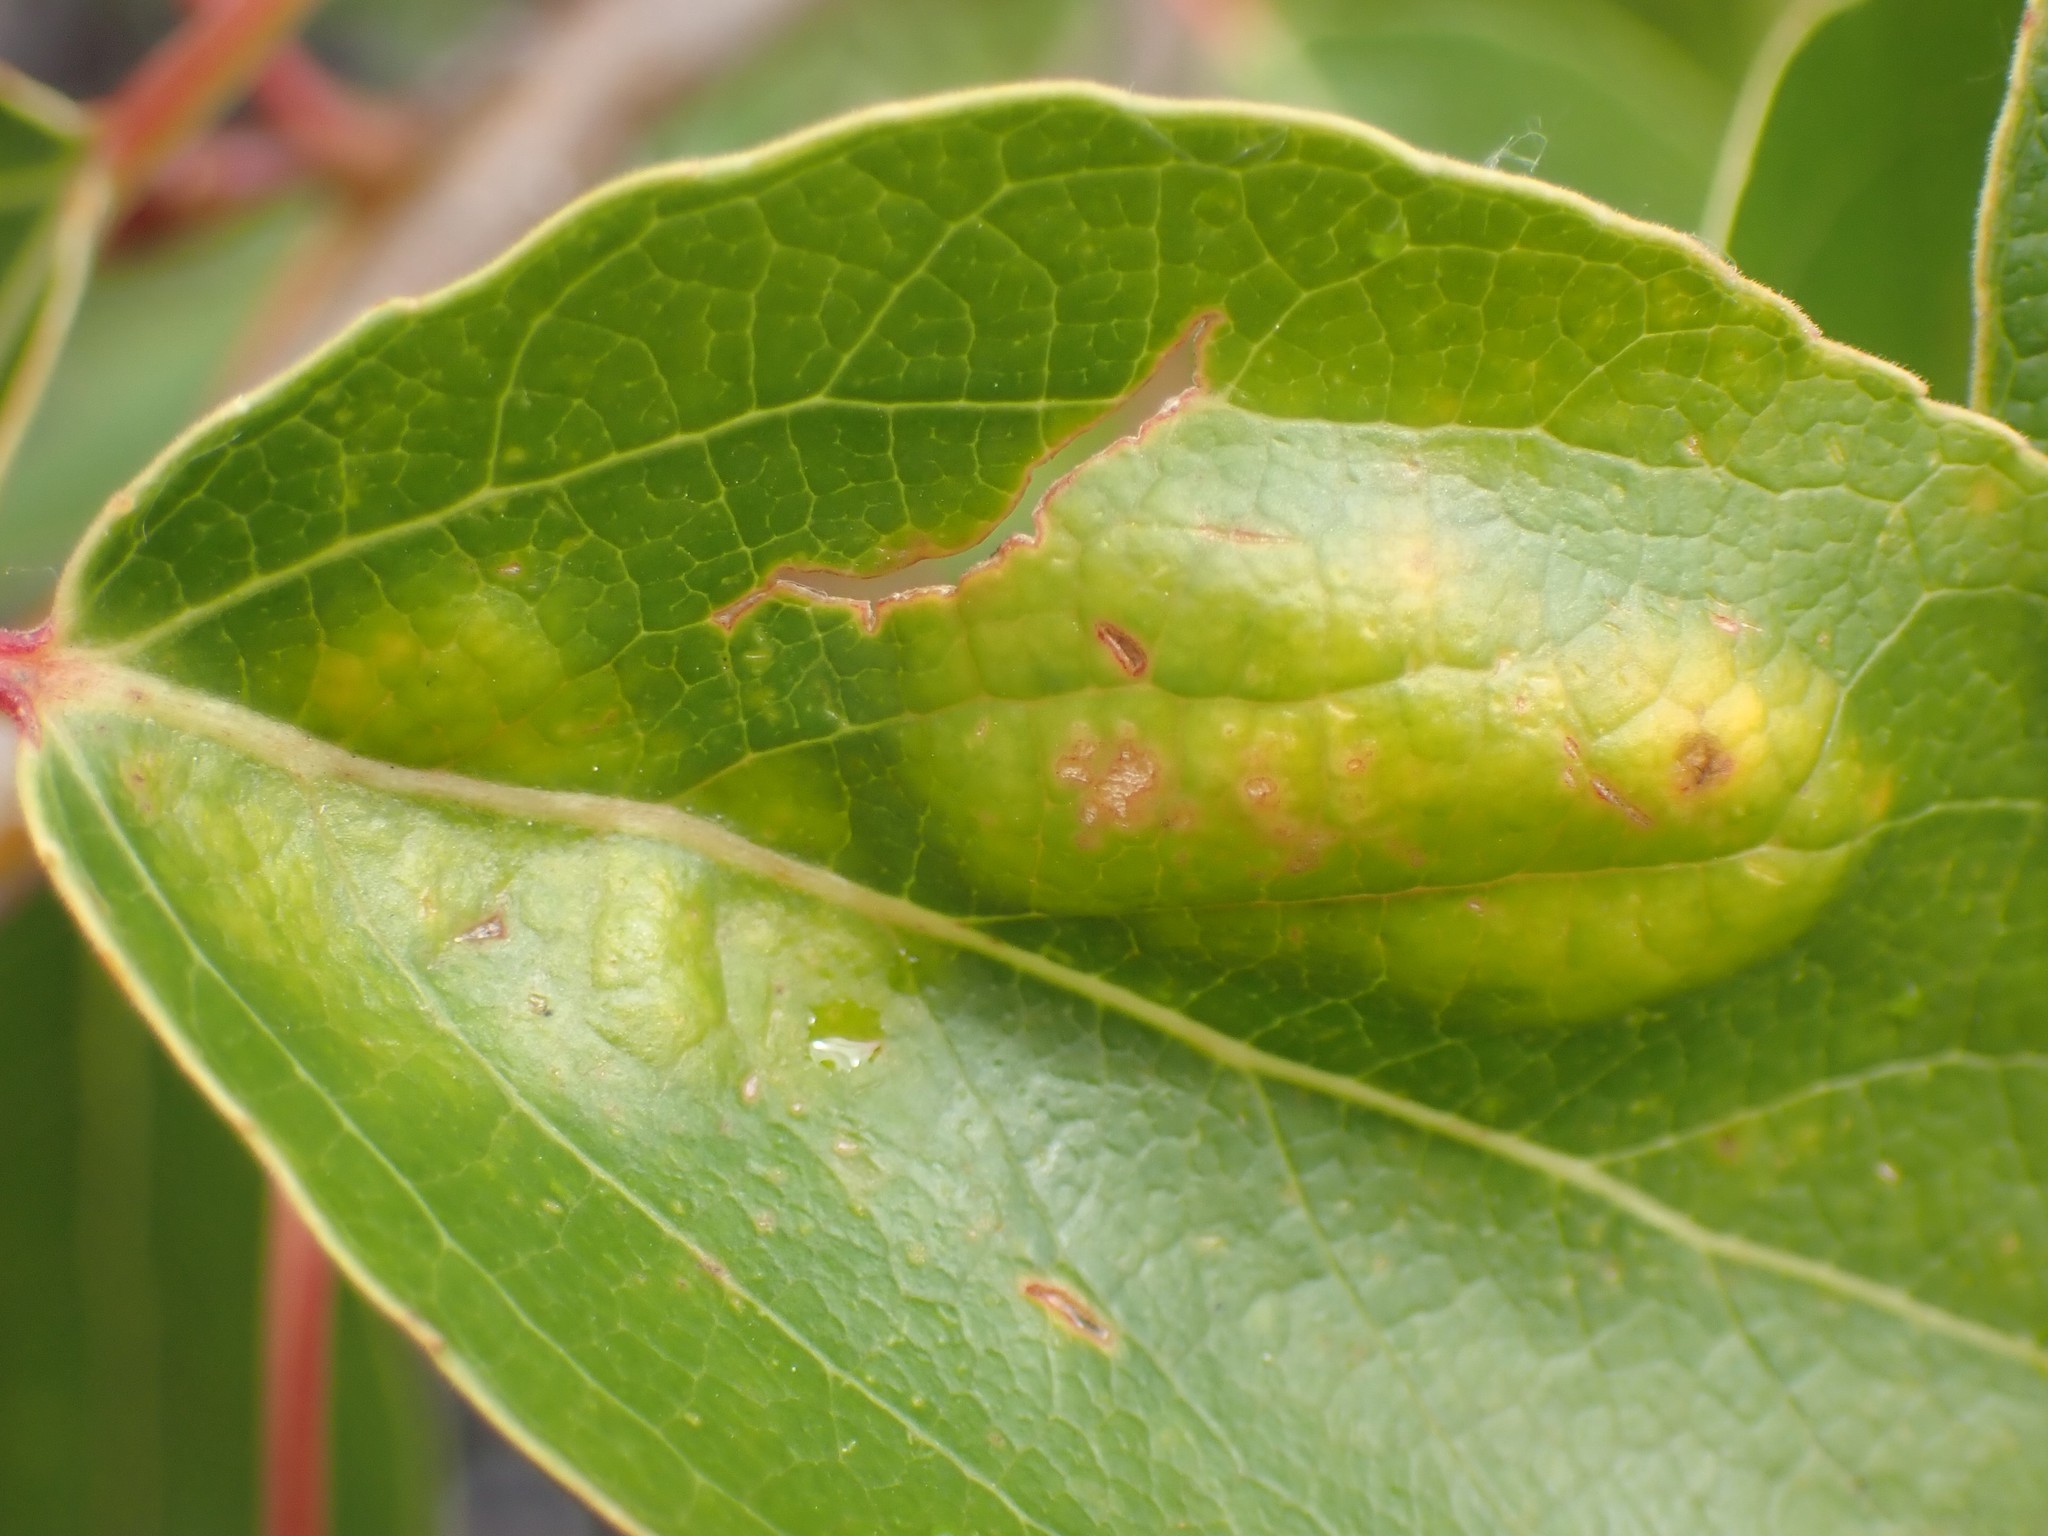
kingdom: Fungi
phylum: Ascomycota
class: Taphrinomycetes
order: Taphrinales
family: Taphrinaceae
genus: Taphrina
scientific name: Taphrina populi-salicis
